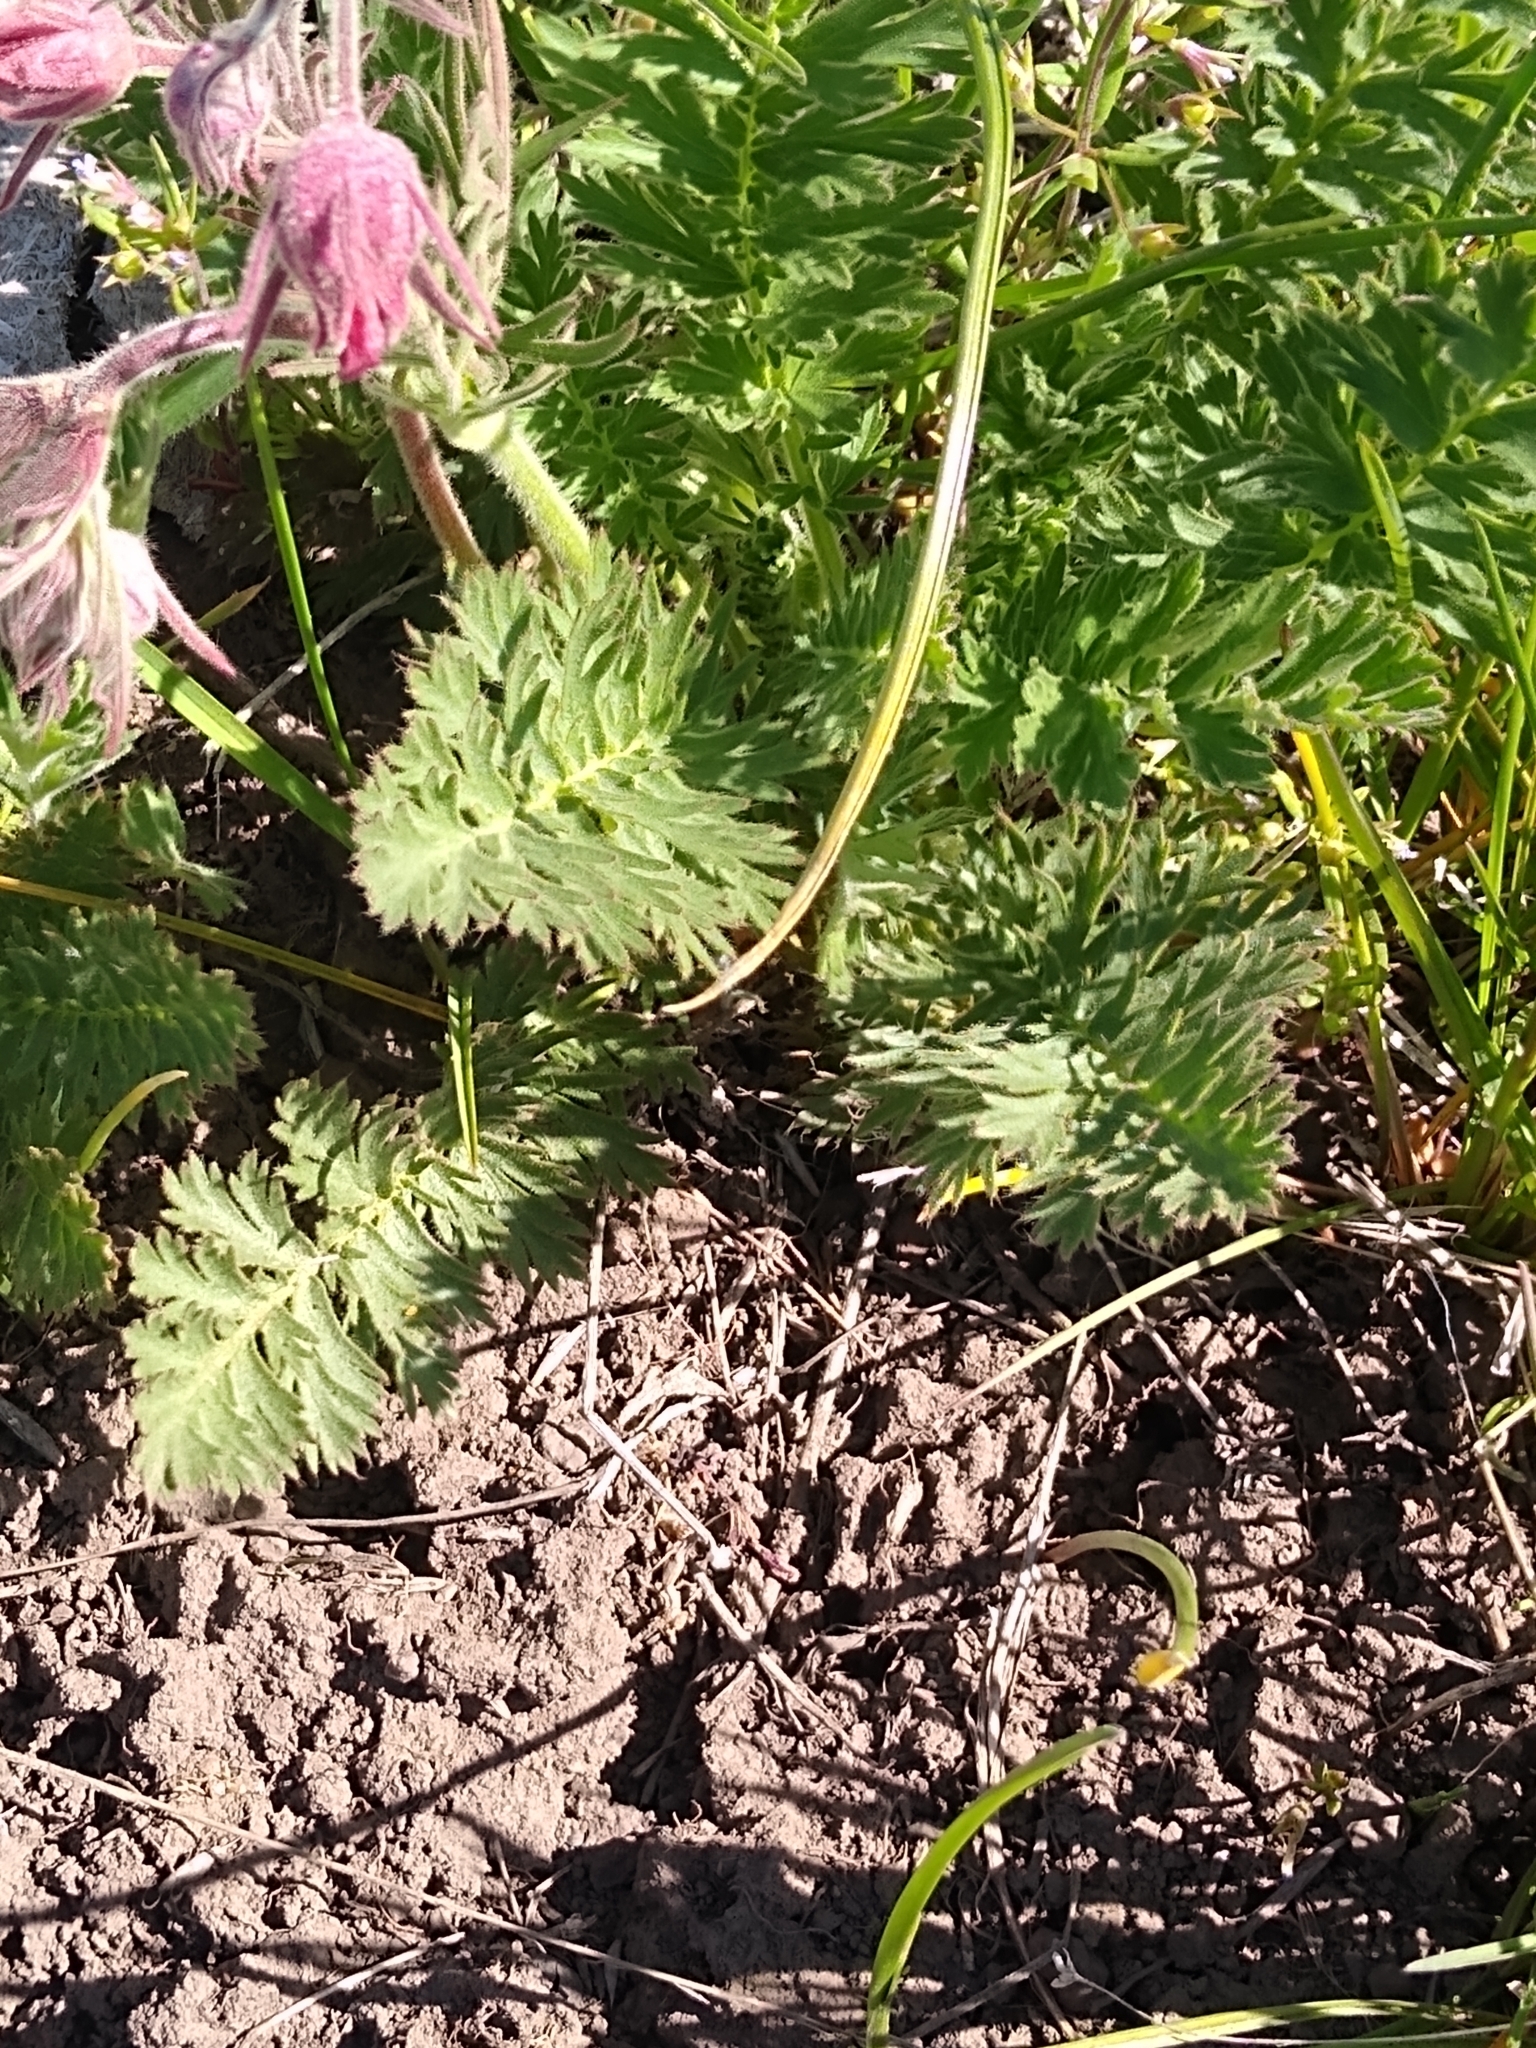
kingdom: Plantae
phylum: Tracheophyta
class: Magnoliopsida
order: Rosales
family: Rosaceae
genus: Geum
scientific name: Geum triflorum
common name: Old man's whiskers
